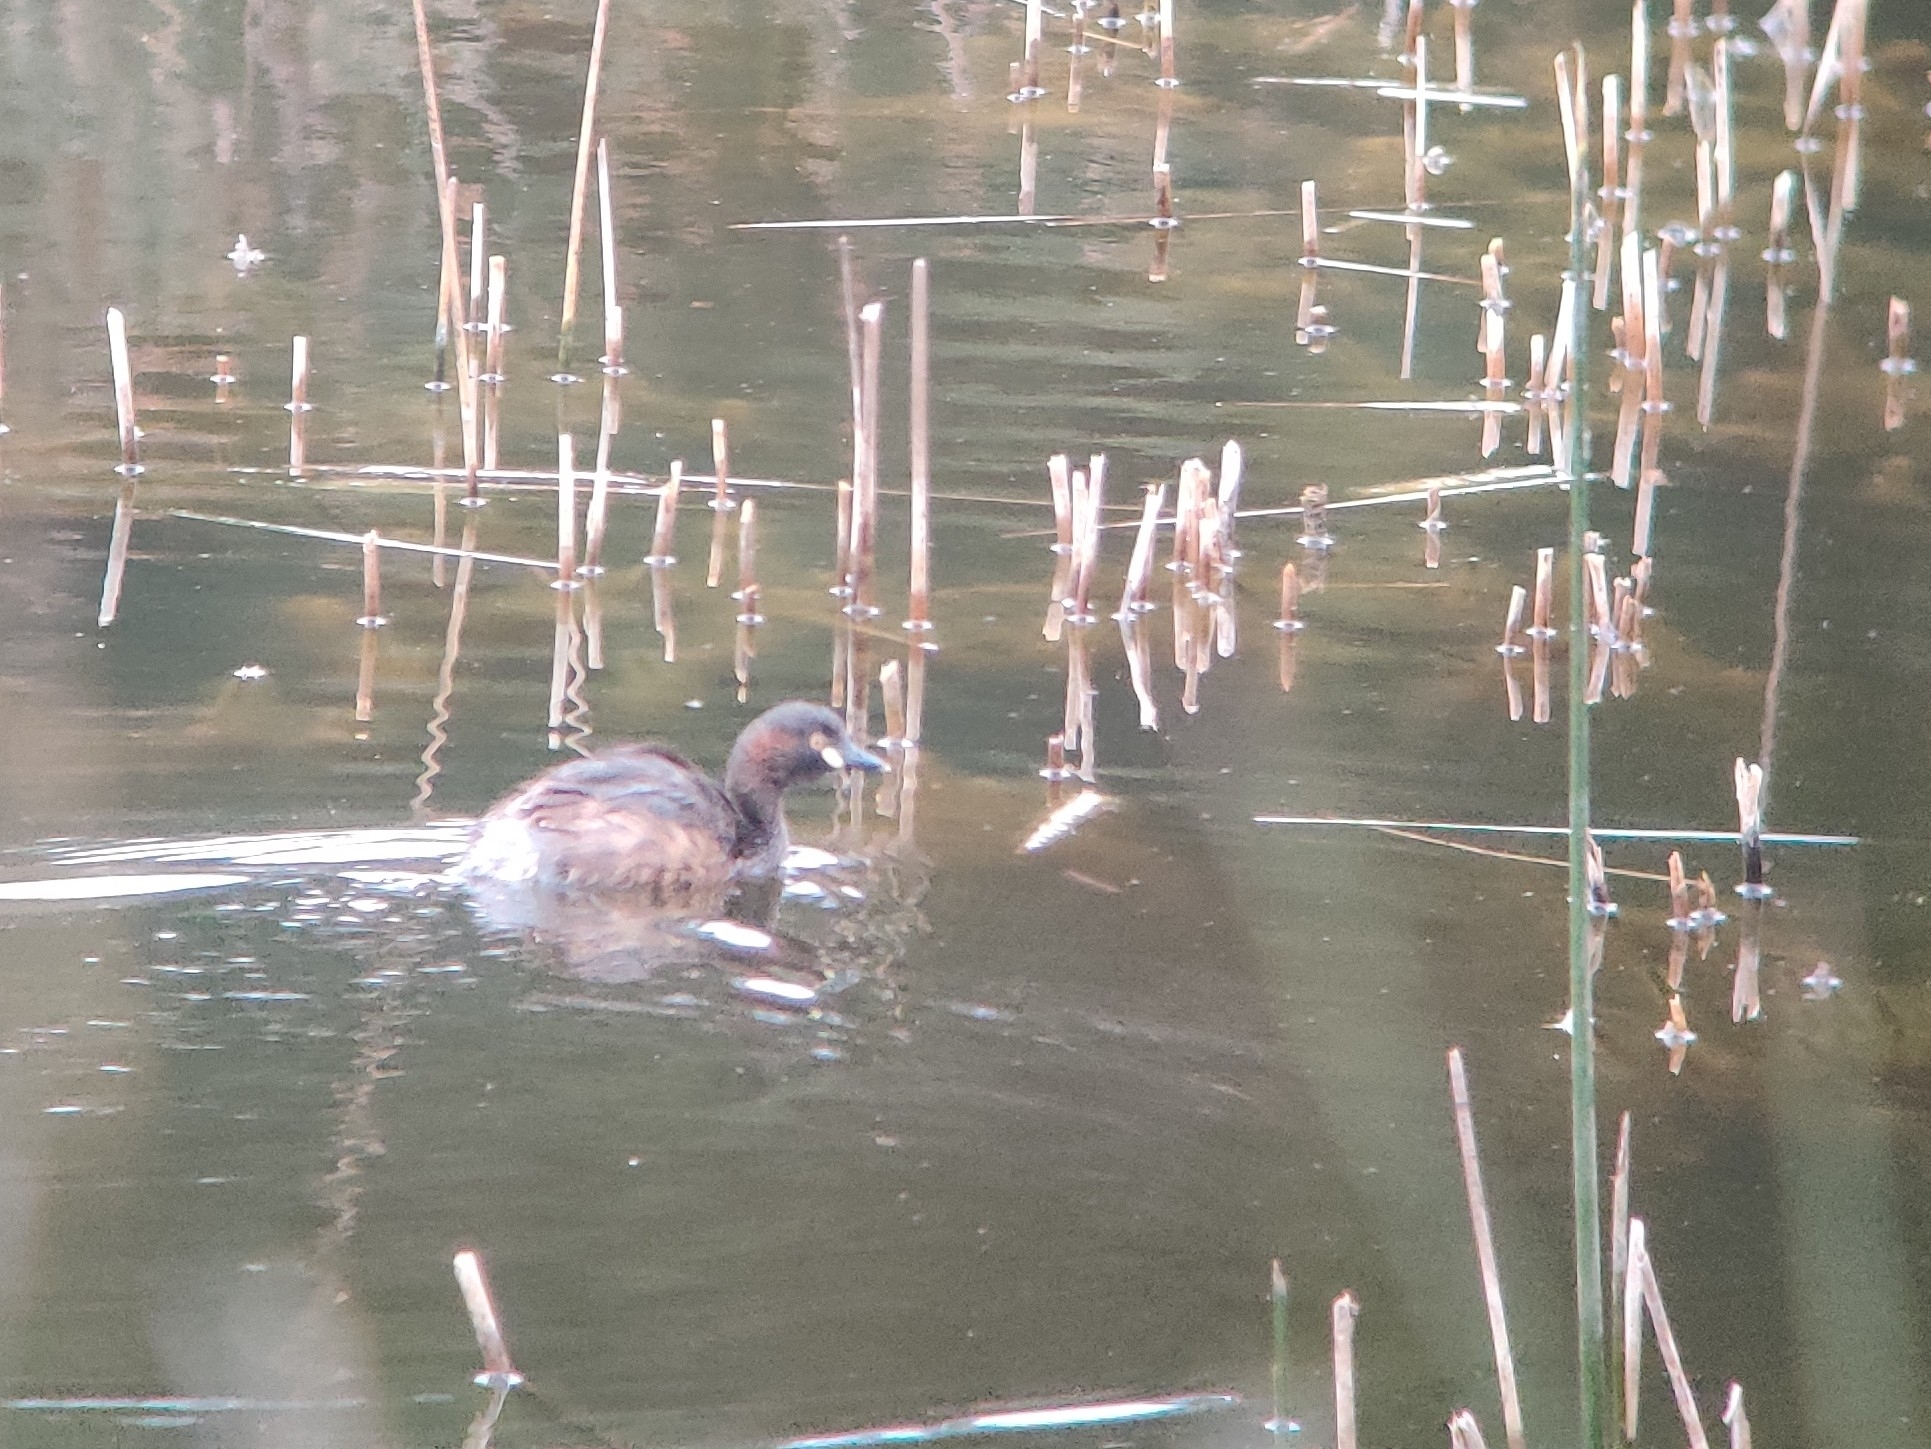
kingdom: Animalia
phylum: Chordata
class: Aves
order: Podicipediformes
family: Podicipedidae
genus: Tachybaptus
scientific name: Tachybaptus novaehollandiae
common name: Australasian grebe
